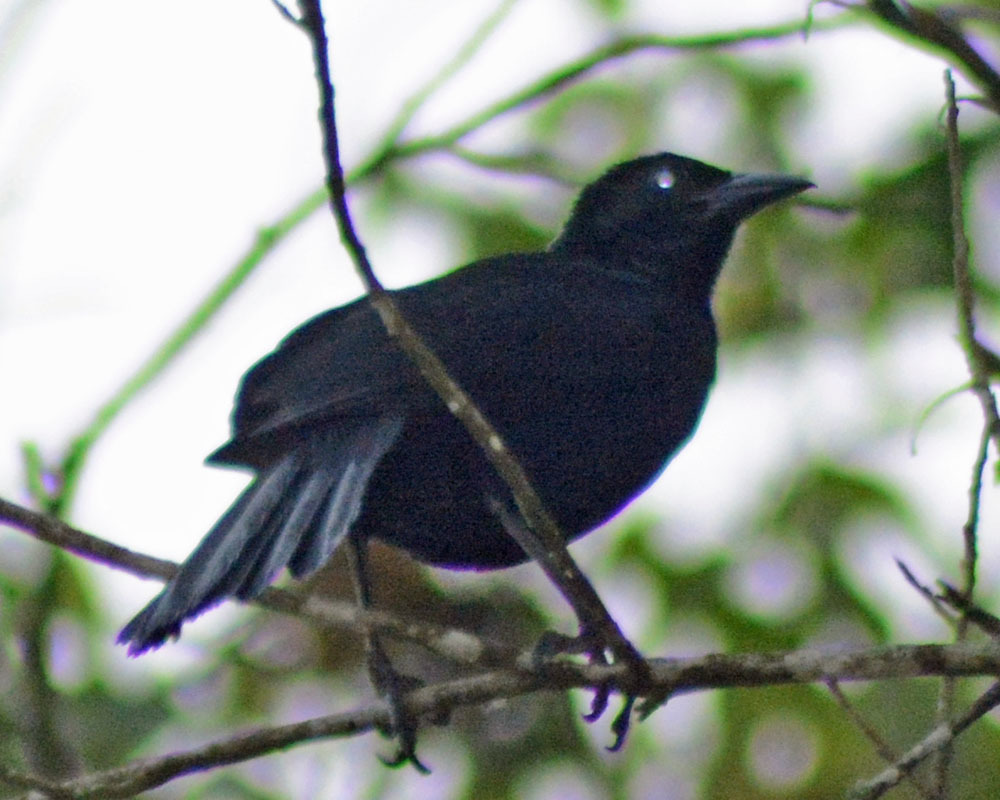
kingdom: Animalia
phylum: Chordata
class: Aves
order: Passeriformes
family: Icteridae
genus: Dives
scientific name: Dives dives
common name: Melodious blackbird
